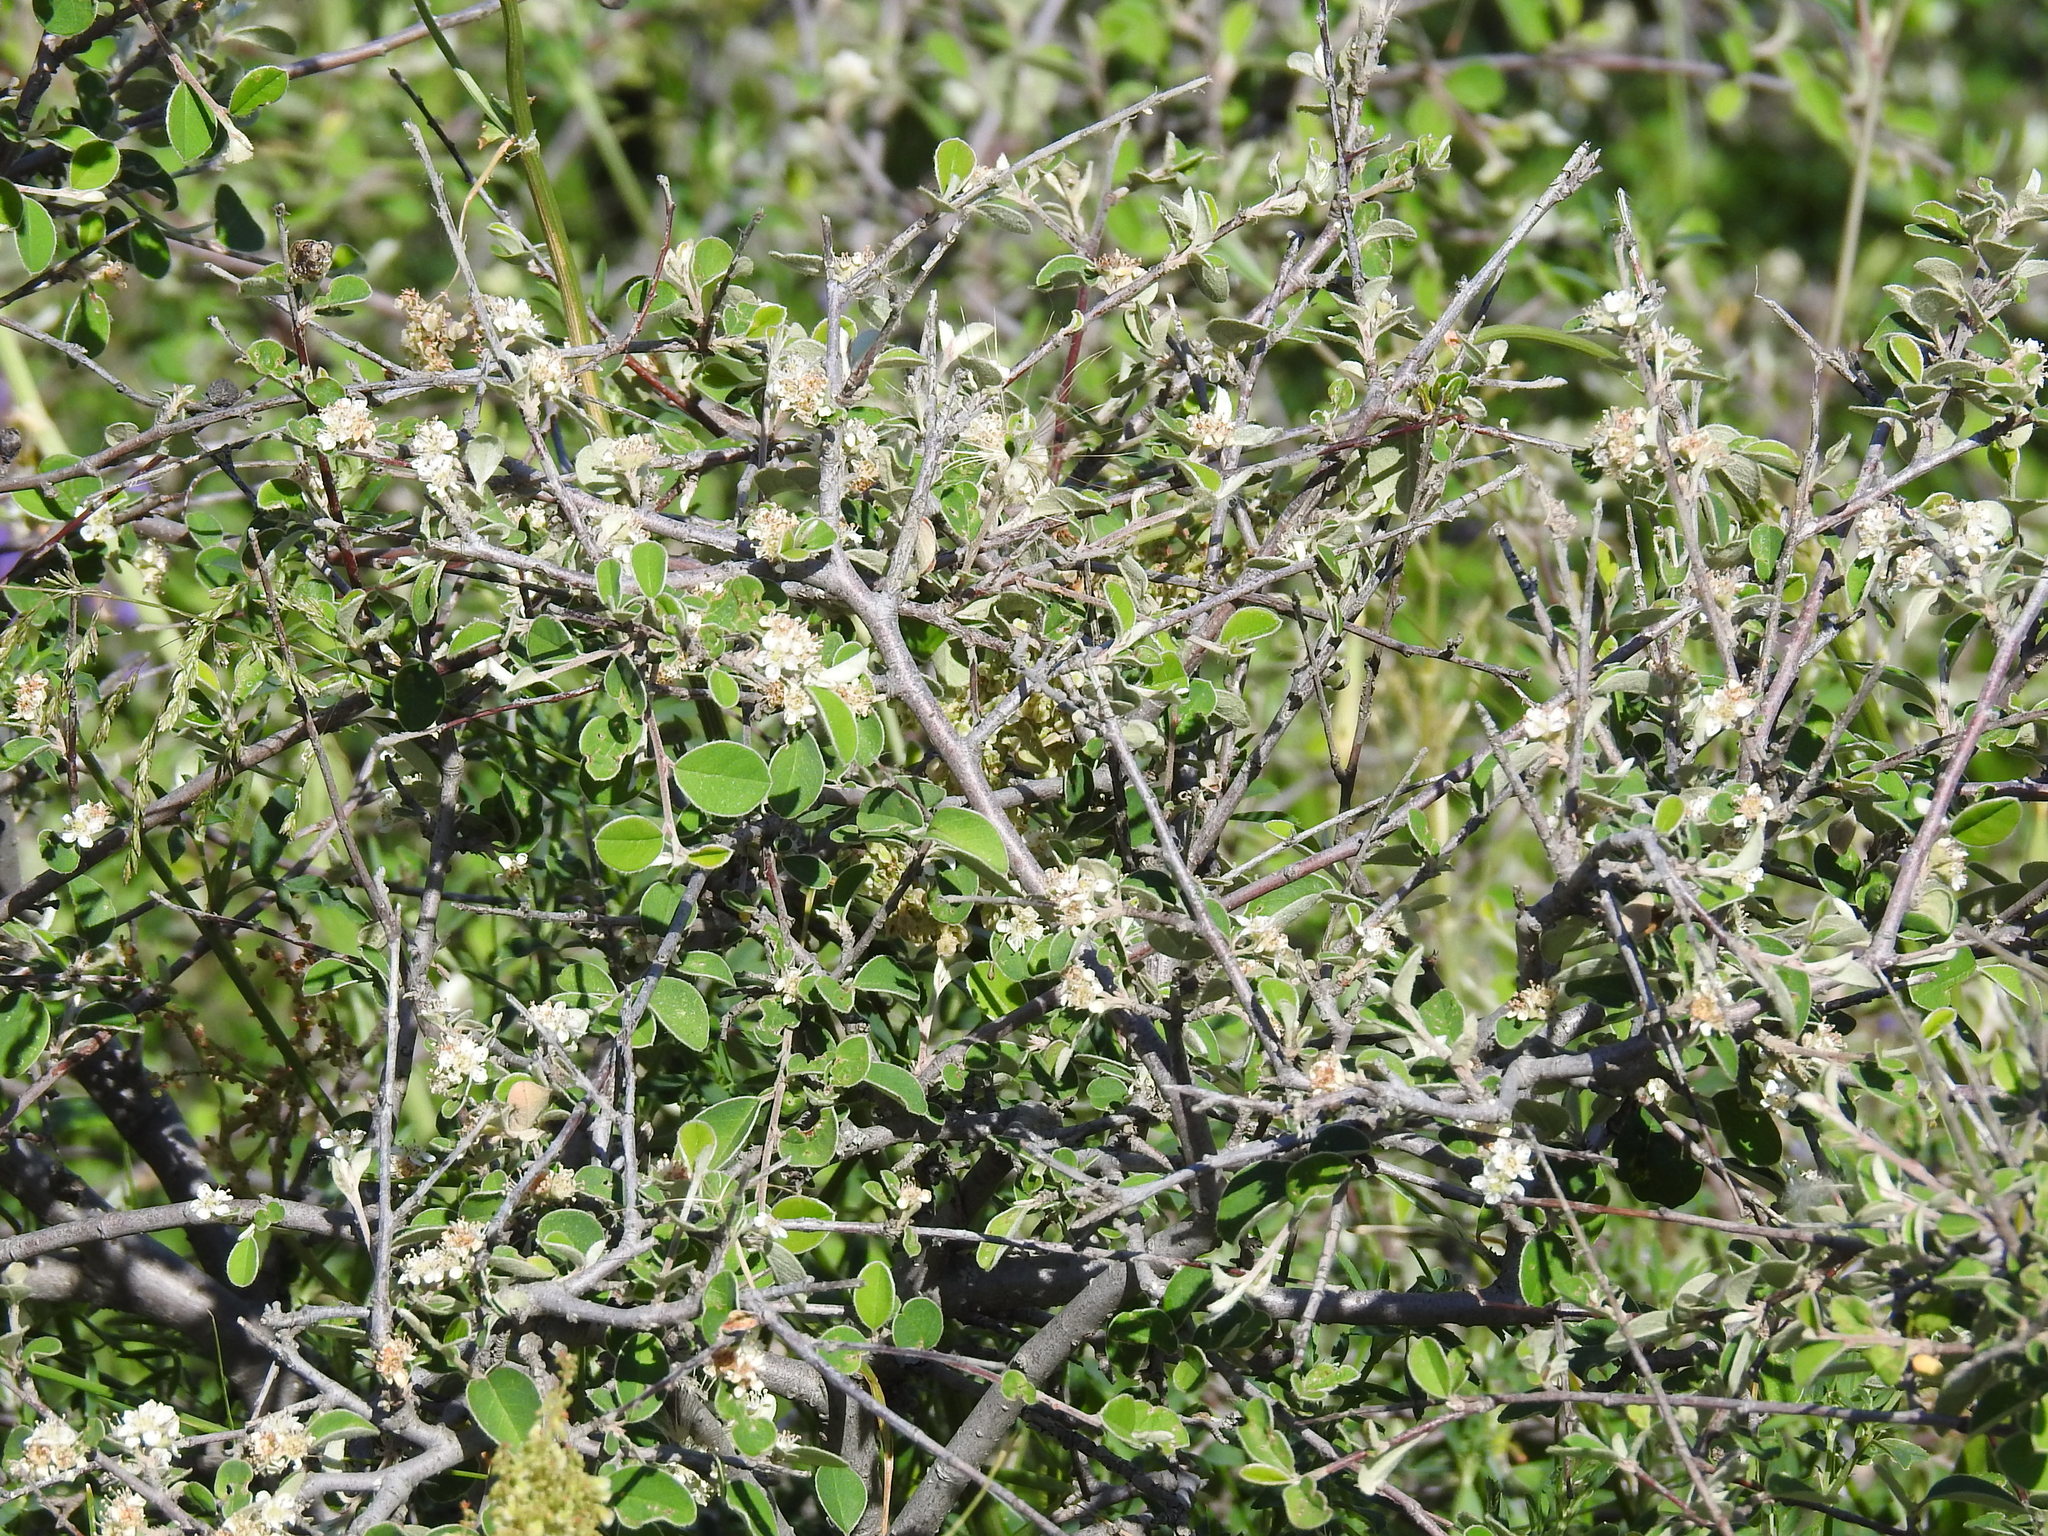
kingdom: Plantae
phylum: Tracheophyta
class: Magnoliopsida
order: Rosales
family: Rosaceae
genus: Cotoneaster
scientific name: Cotoneaster nummularius
